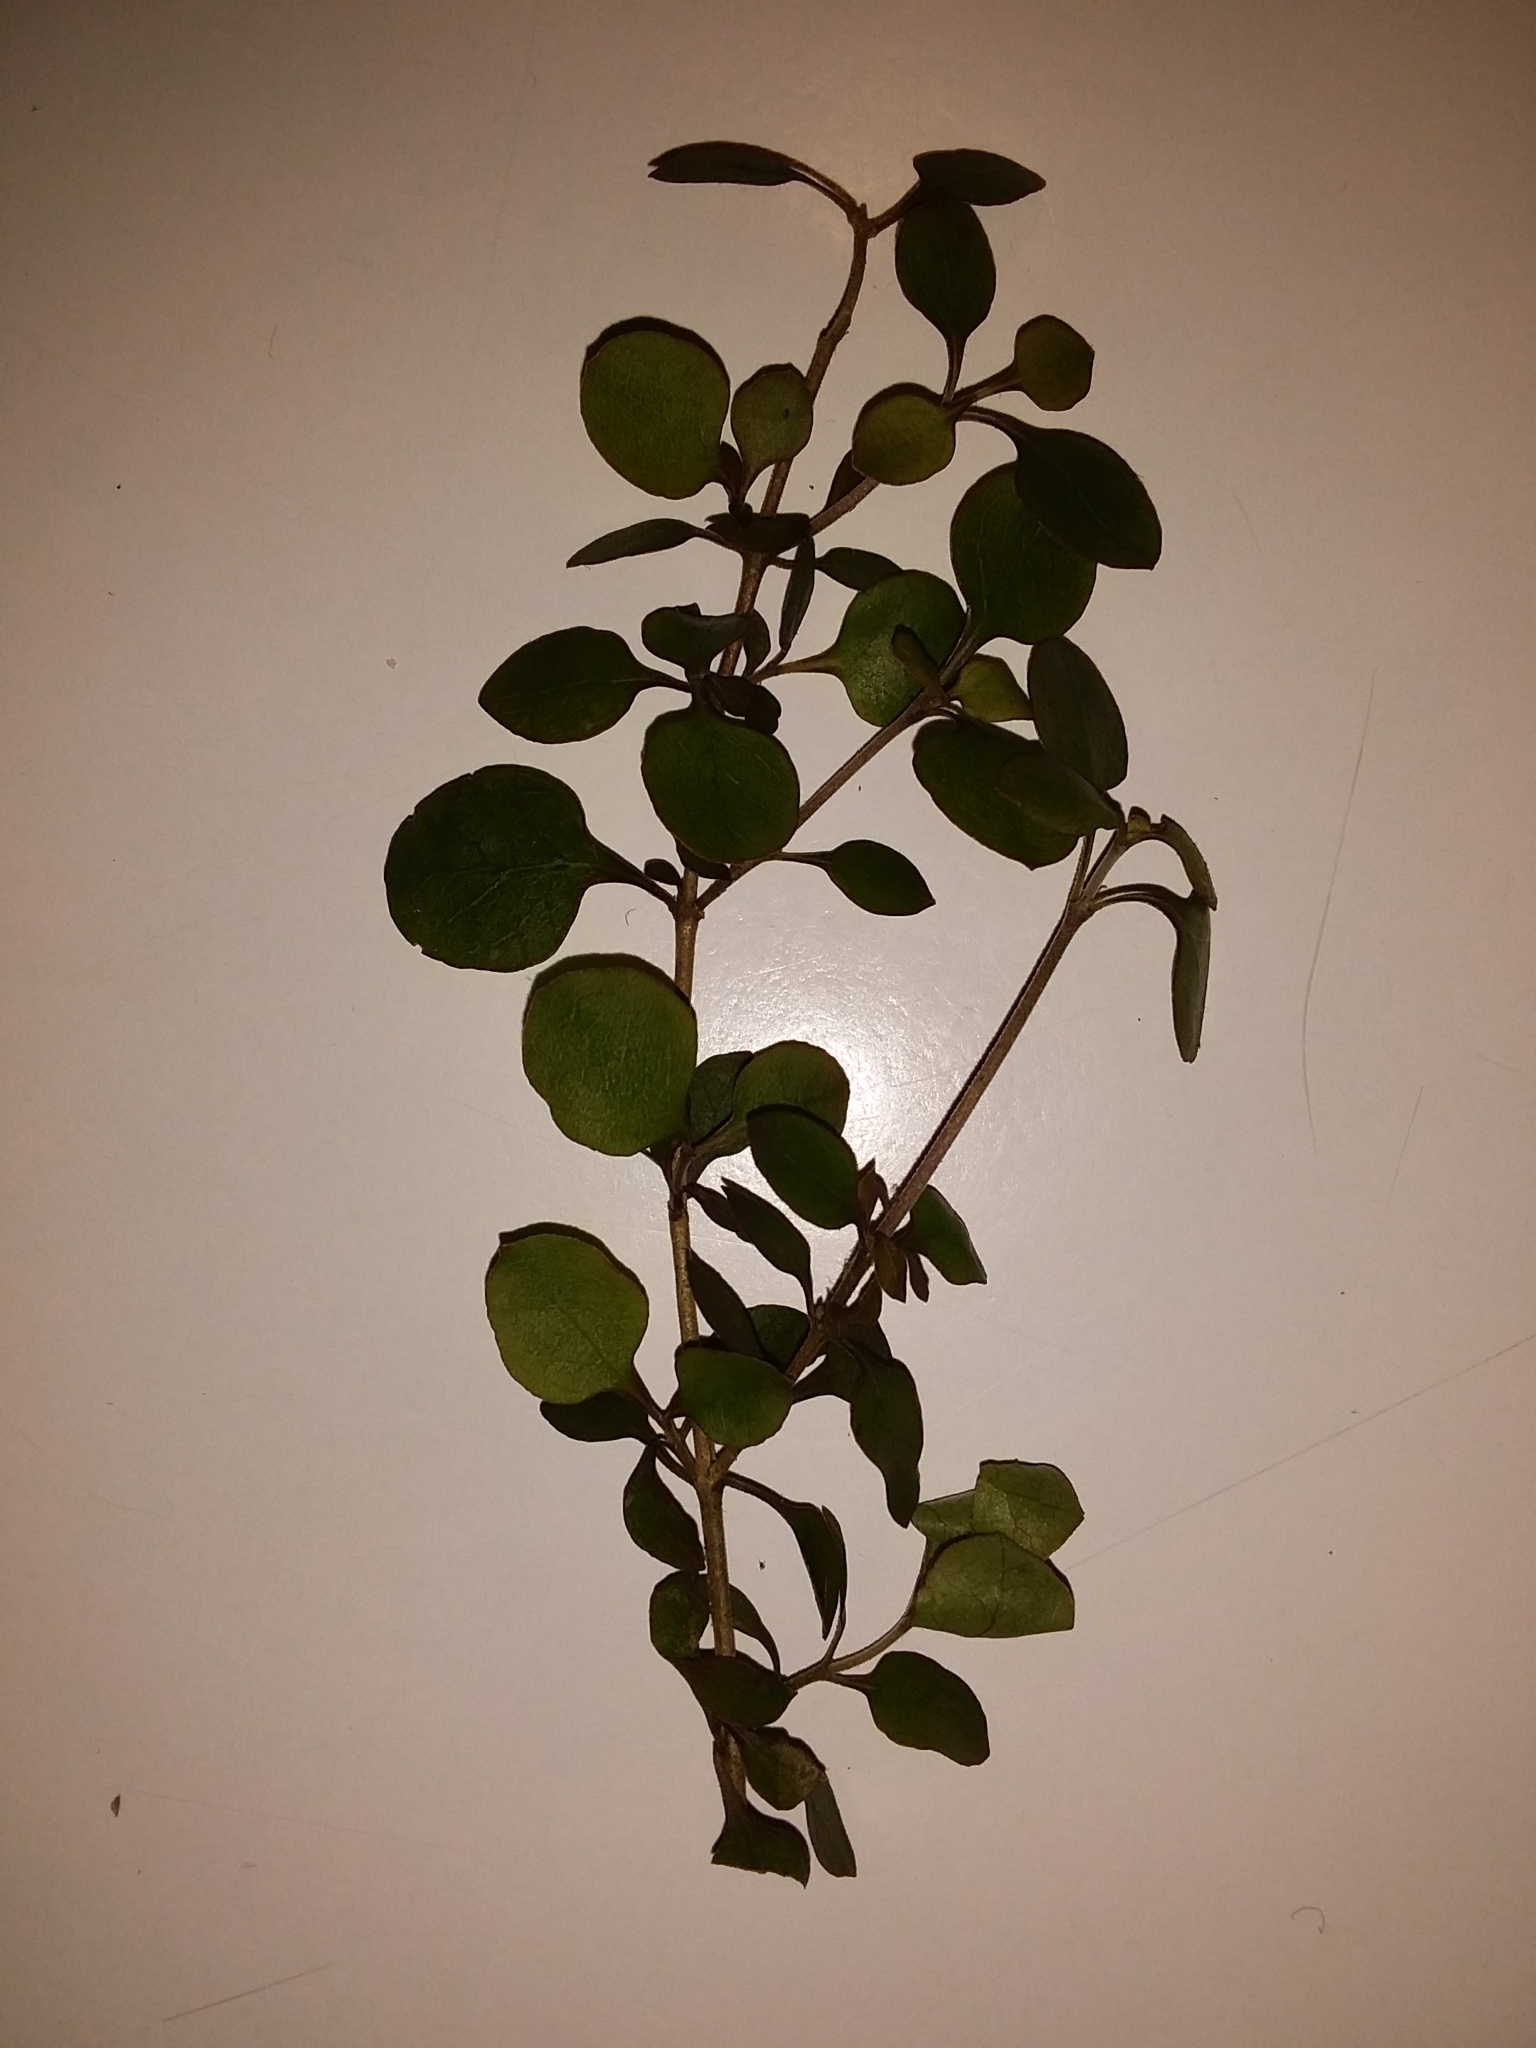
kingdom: Plantae
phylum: Tracheophyta
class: Magnoliopsida
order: Gentianales
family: Rubiaceae
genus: Coprosma
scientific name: Coprosma crassifolia
